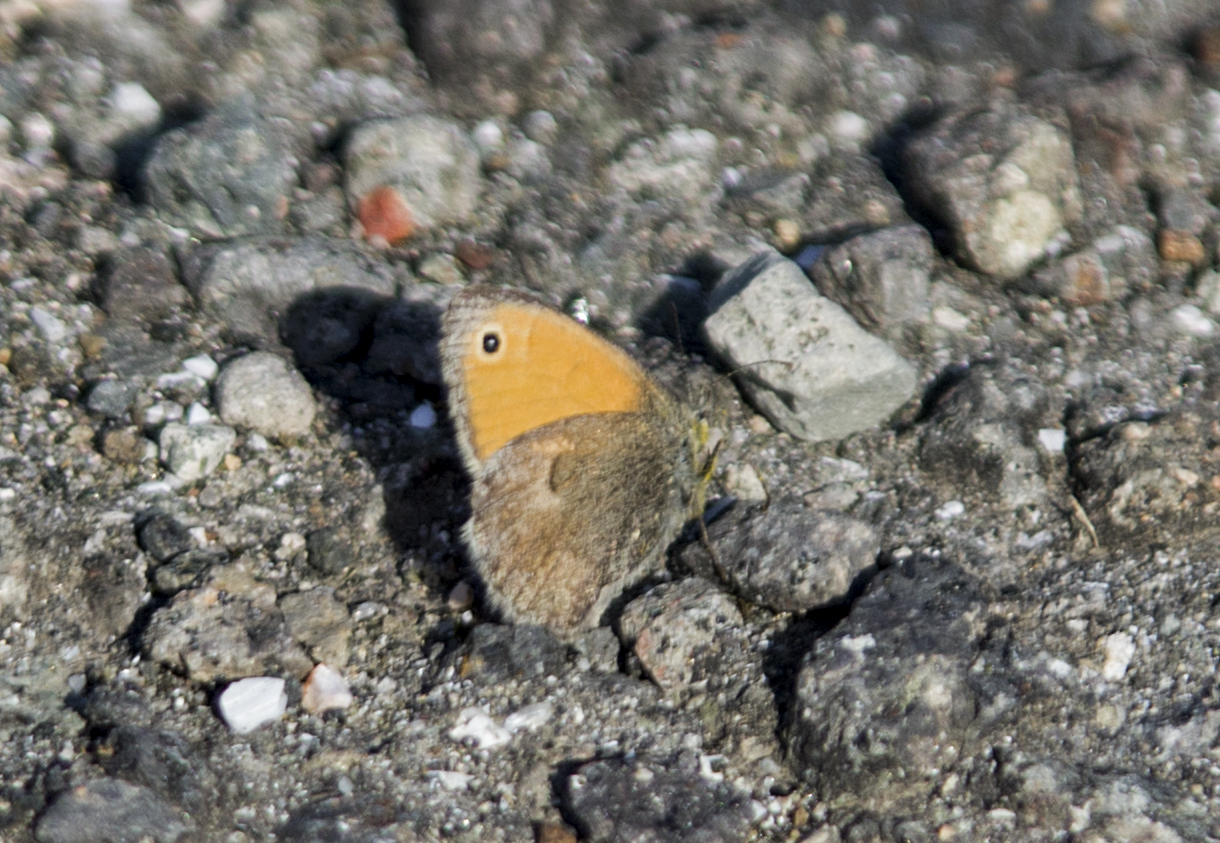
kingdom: Animalia
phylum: Arthropoda
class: Insecta
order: Lepidoptera
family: Nymphalidae
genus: Coenonympha
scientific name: Coenonympha pamphilus
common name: Small heath
